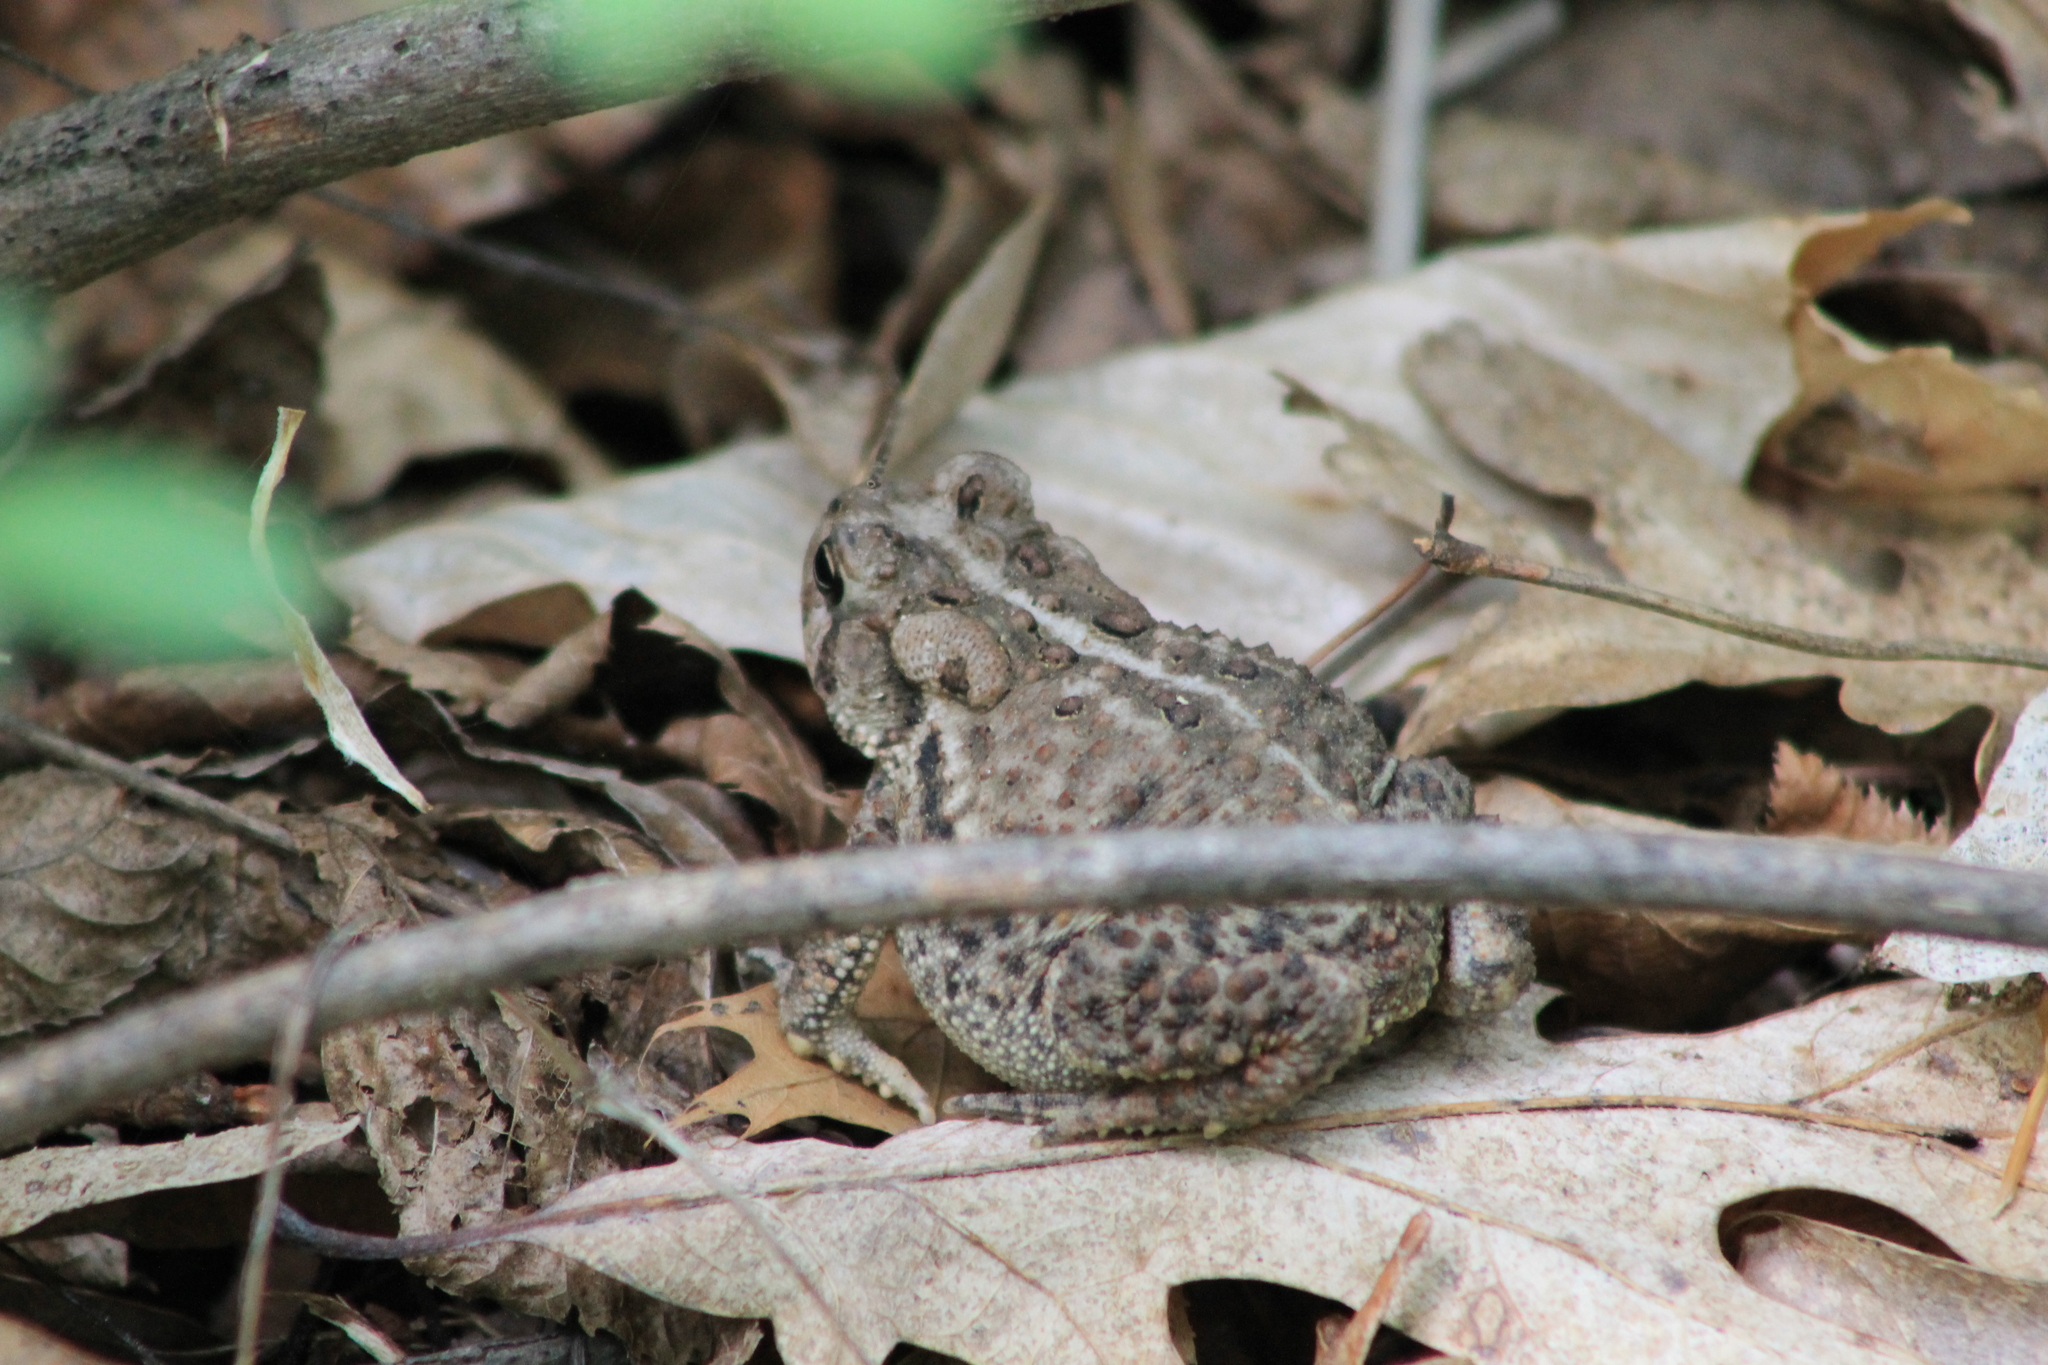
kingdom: Animalia
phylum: Chordata
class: Amphibia
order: Anura
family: Bufonidae
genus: Anaxyrus
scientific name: Anaxyrus americanus
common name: American toad
